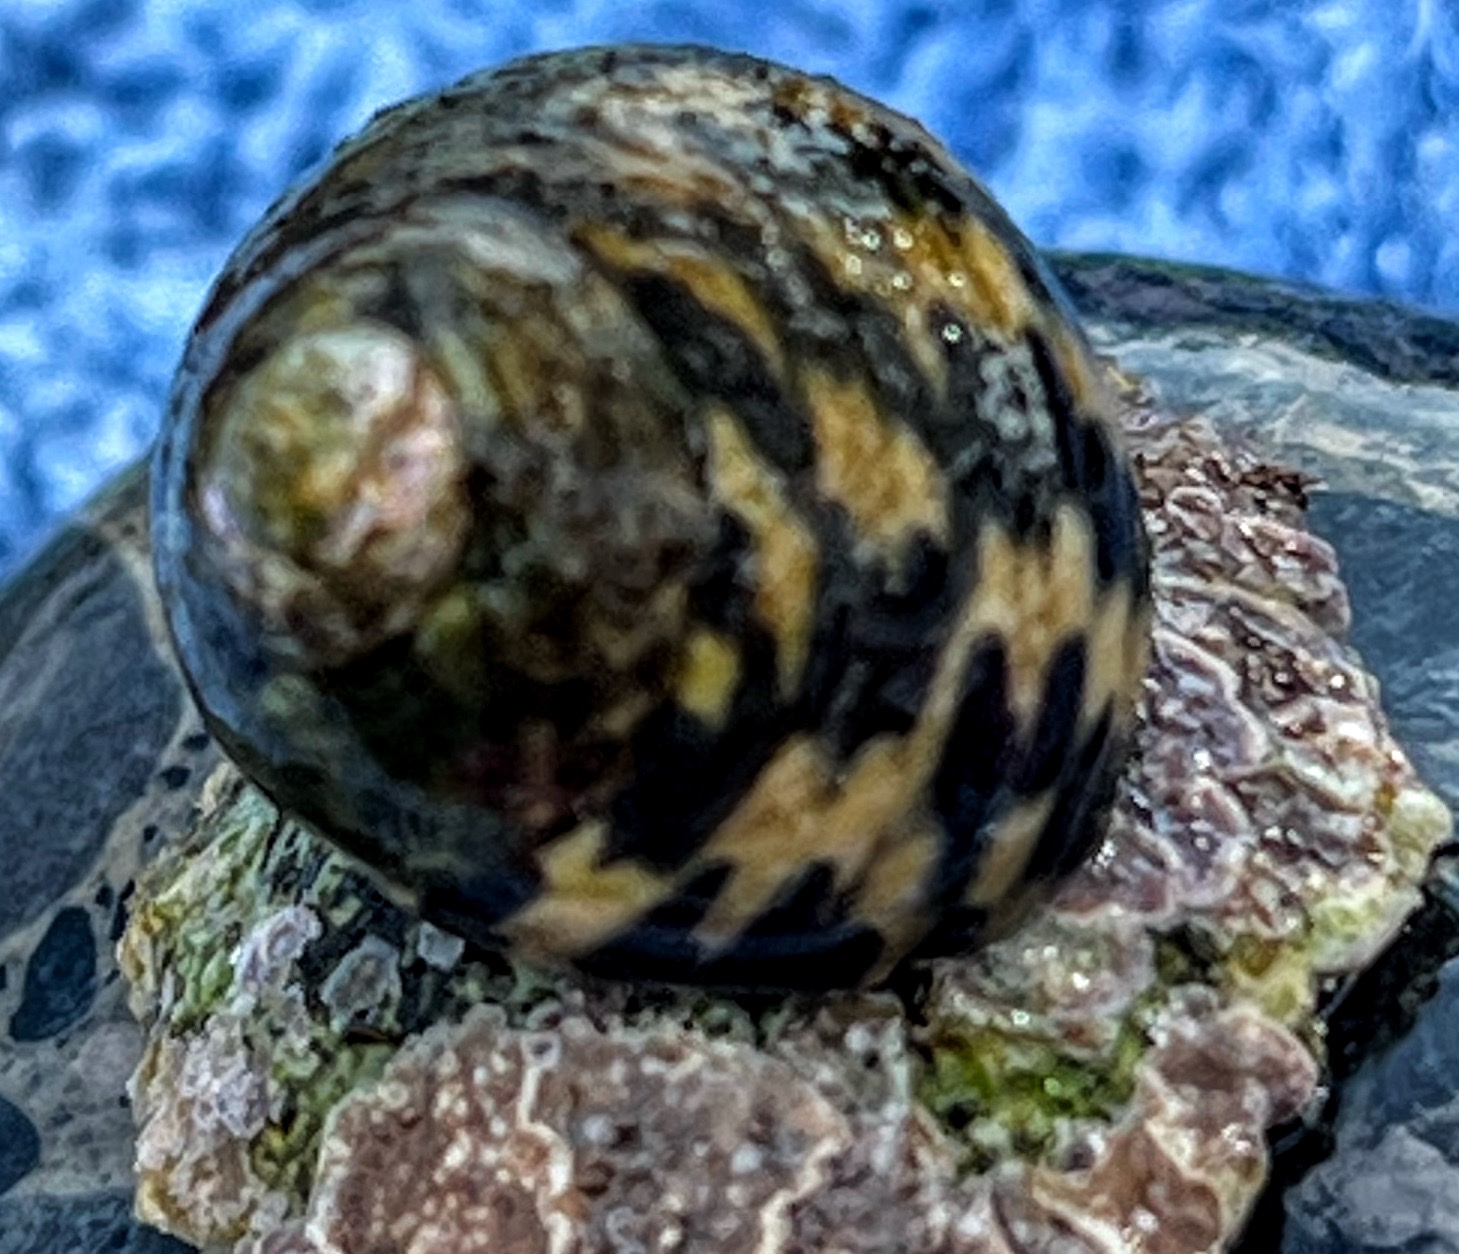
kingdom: Animalia
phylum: Mollusca
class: Gastropoda
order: Trochida
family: Trochidae
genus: Phorcus
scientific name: Phorcus turbinatus
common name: Turbinate monodont
